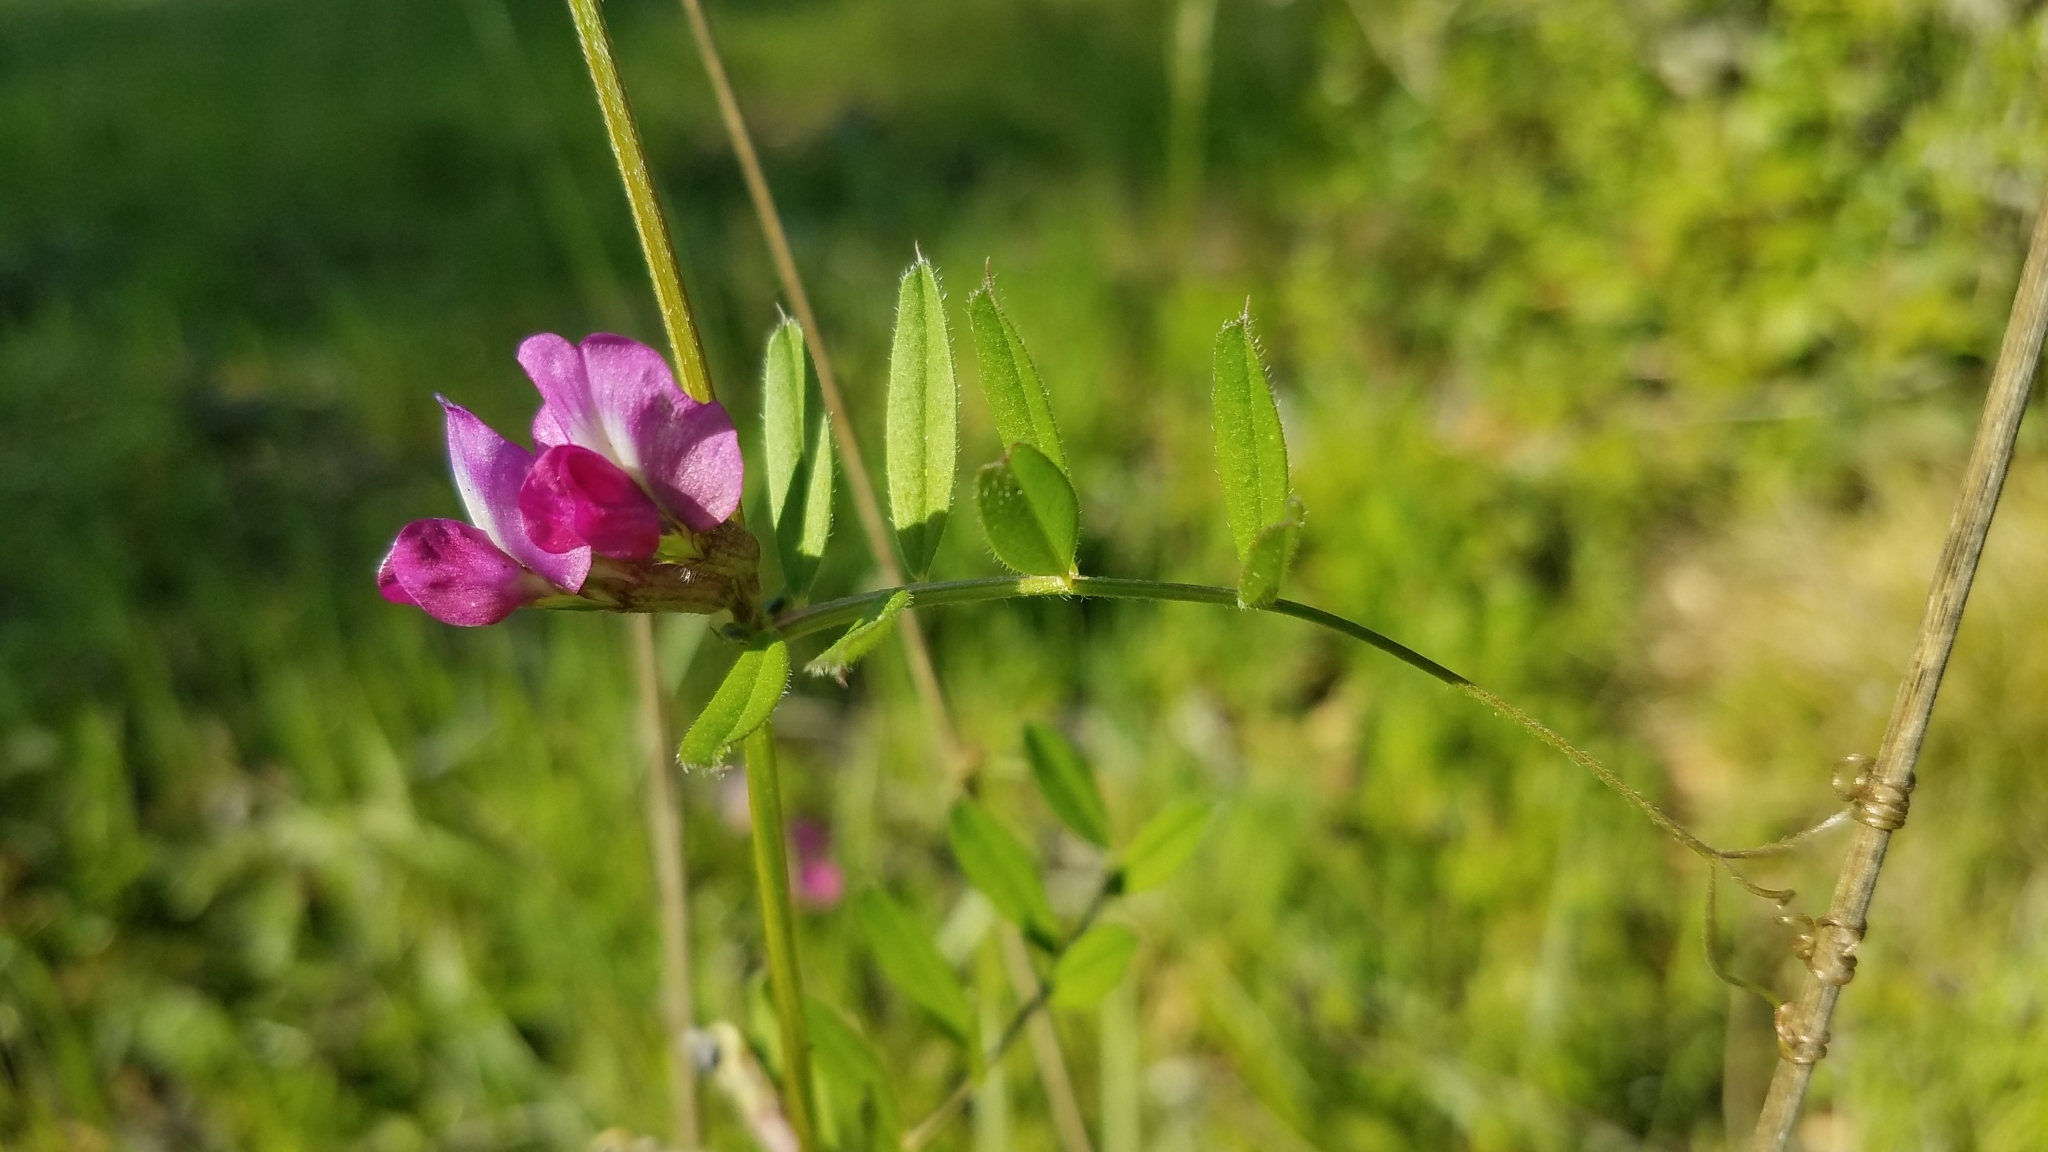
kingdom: Plantae
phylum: Tracheophyta
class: Magnoliopsida
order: Fabales
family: Fabaceae
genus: Vicia
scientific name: Vicia sativa
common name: Garden vetch
